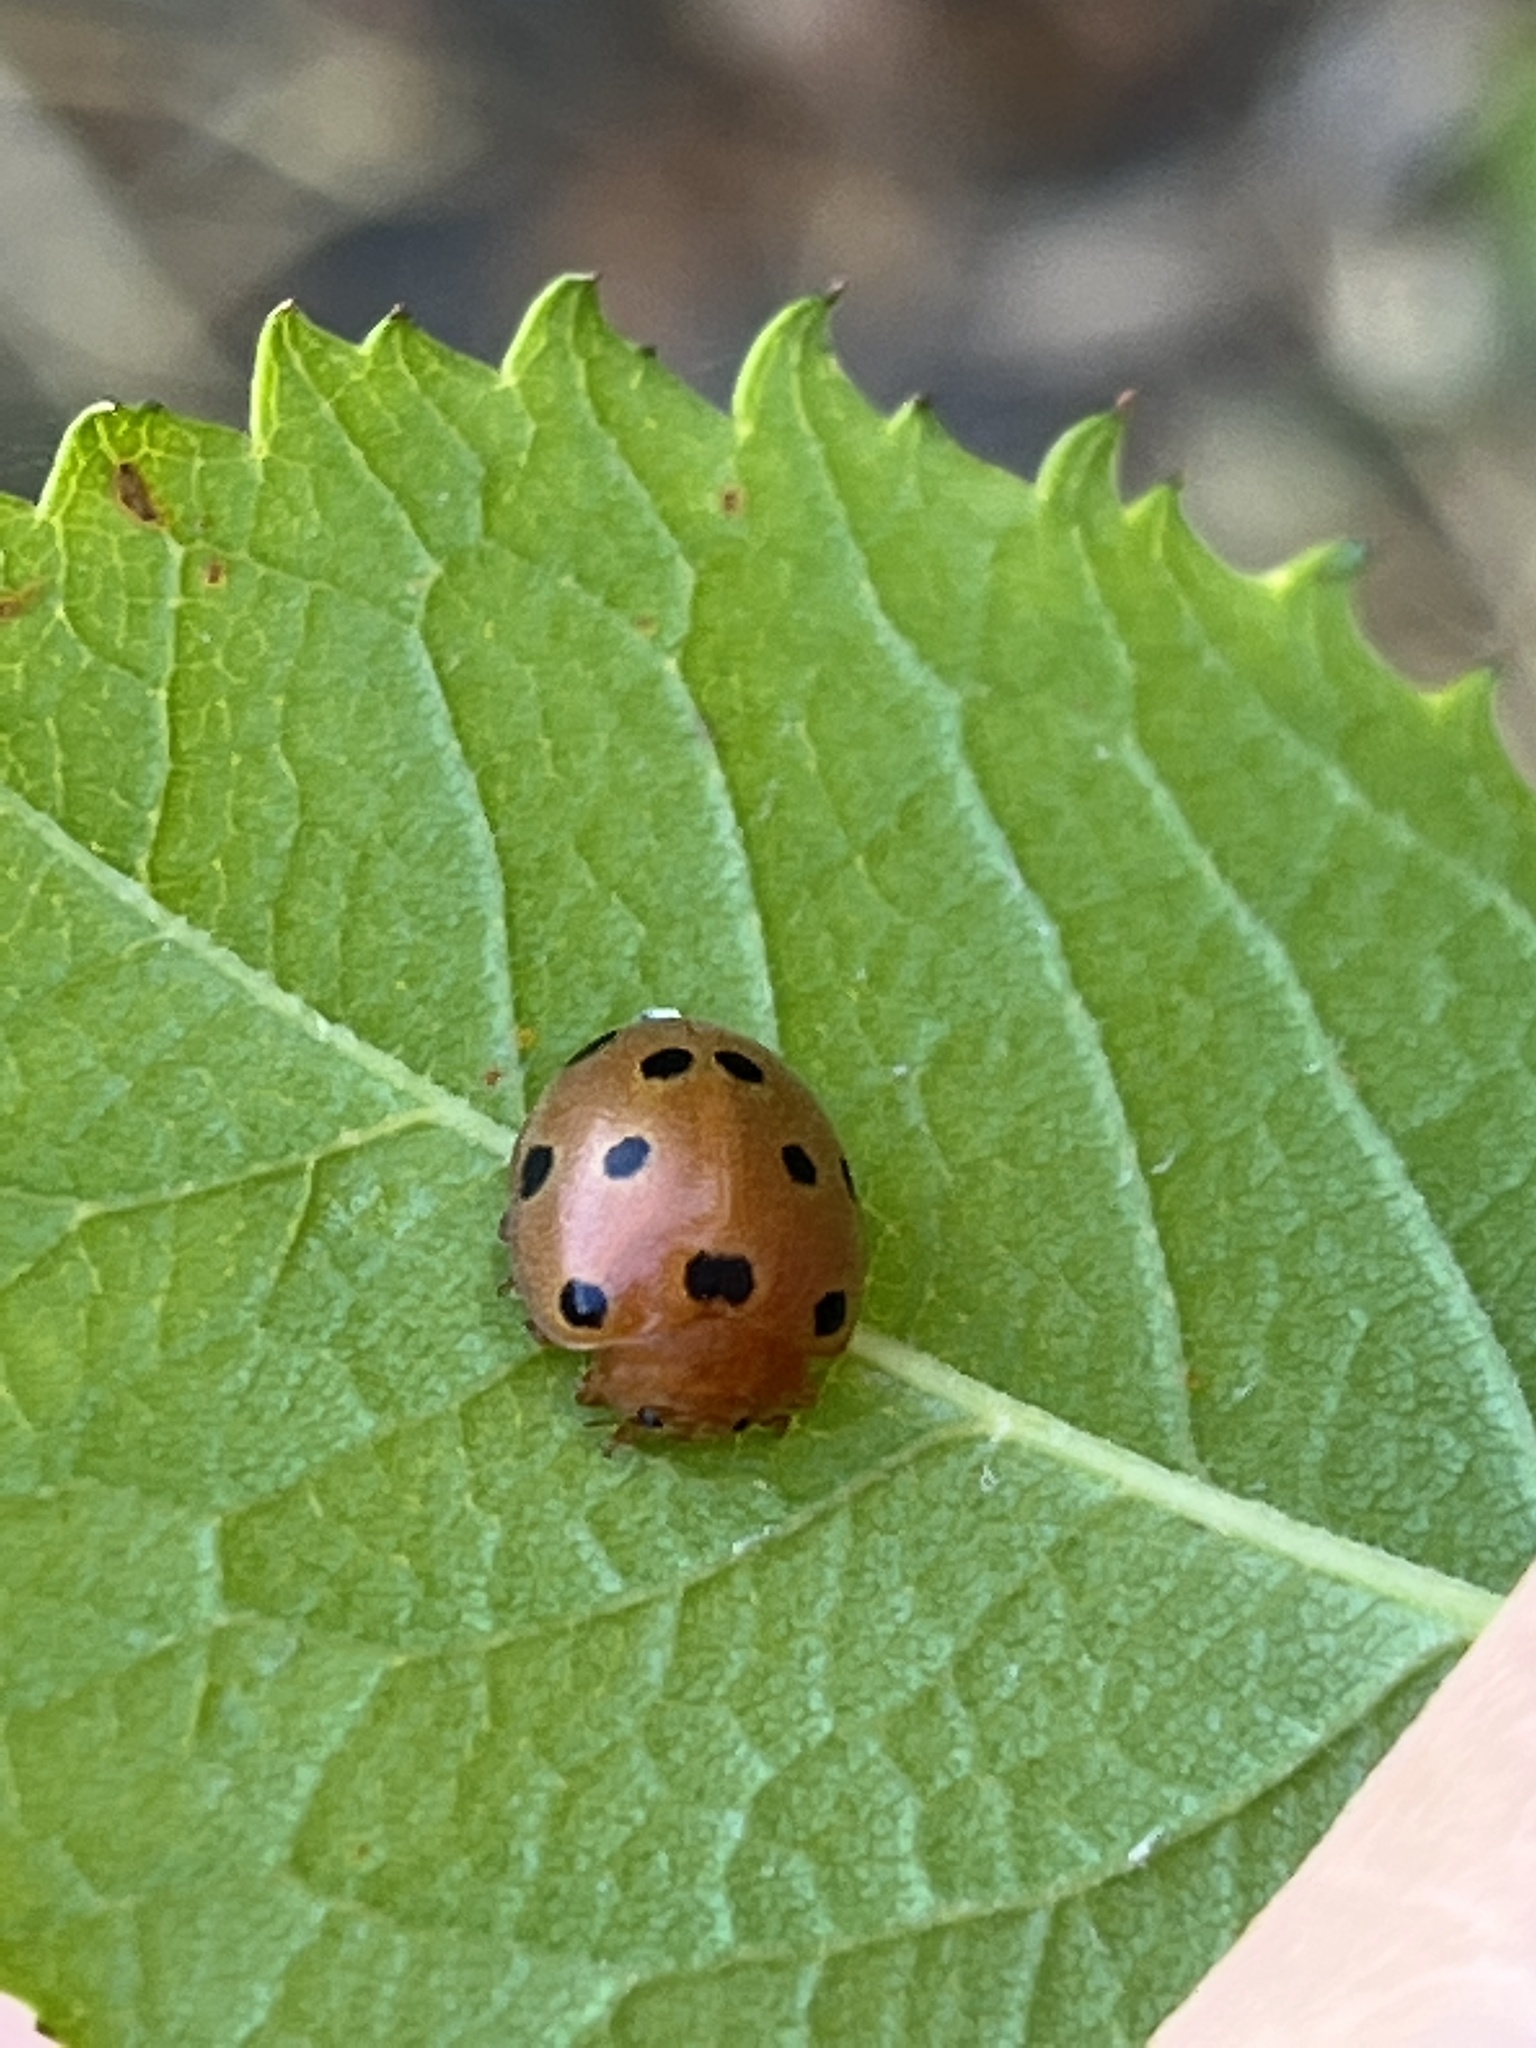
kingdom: Animalia
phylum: Arthropoda
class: Insecta
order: Coleoptera
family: Coccinellidae
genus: Henosepilachna
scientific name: Henosepilachna argus
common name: Bryony ladybird
